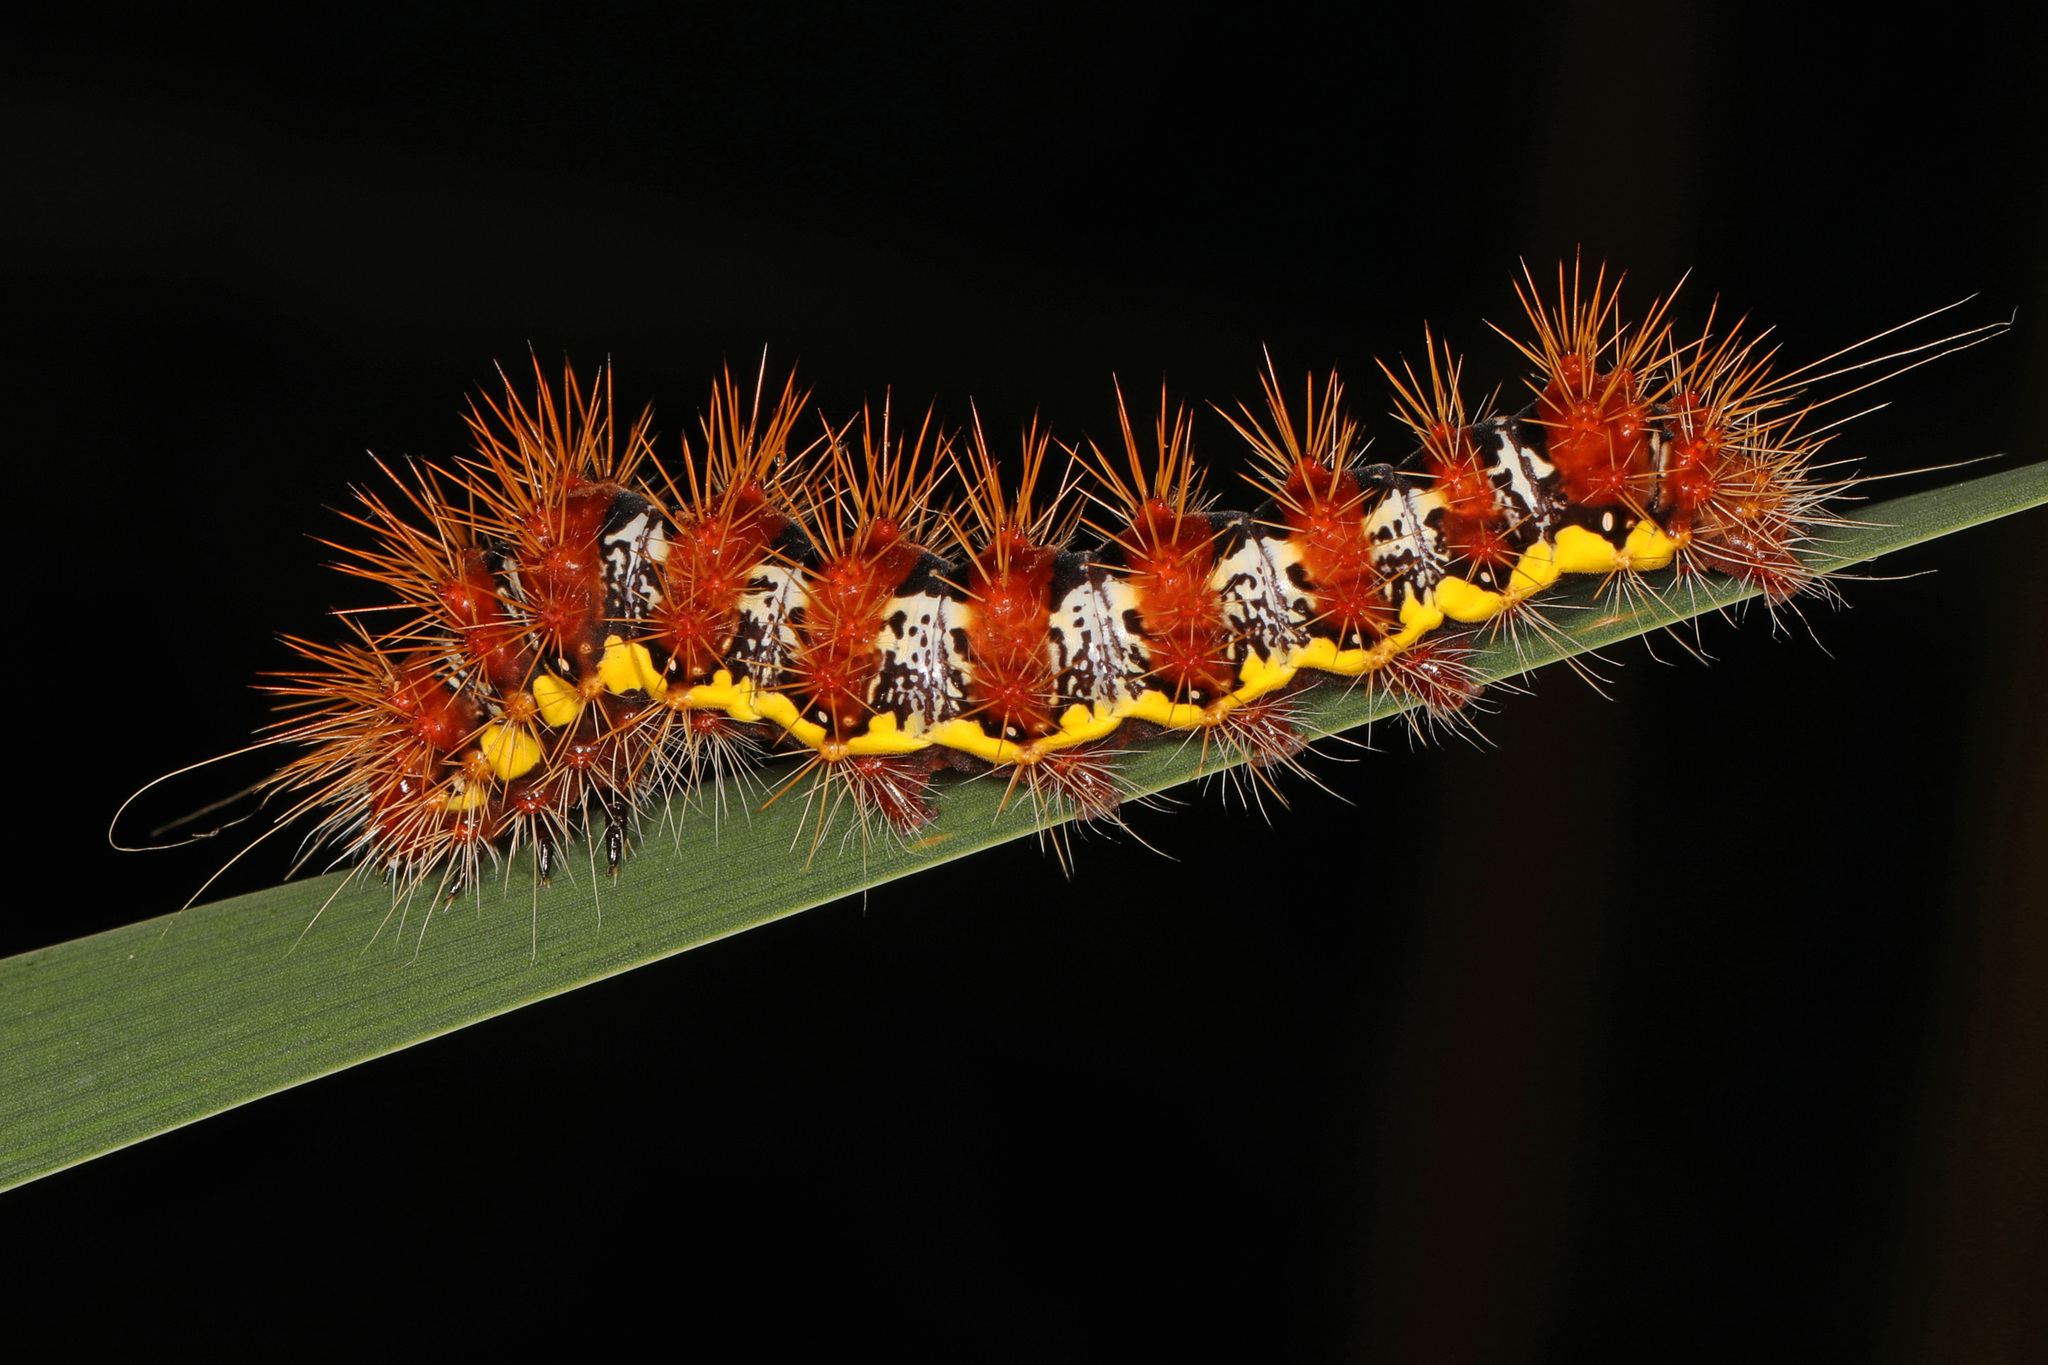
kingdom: Animalia
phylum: Arthropoda
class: Insecta
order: Lepidoptera
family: Noctuidae
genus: Acronicta
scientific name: Acronicta oblinita
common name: Smeared dagger
